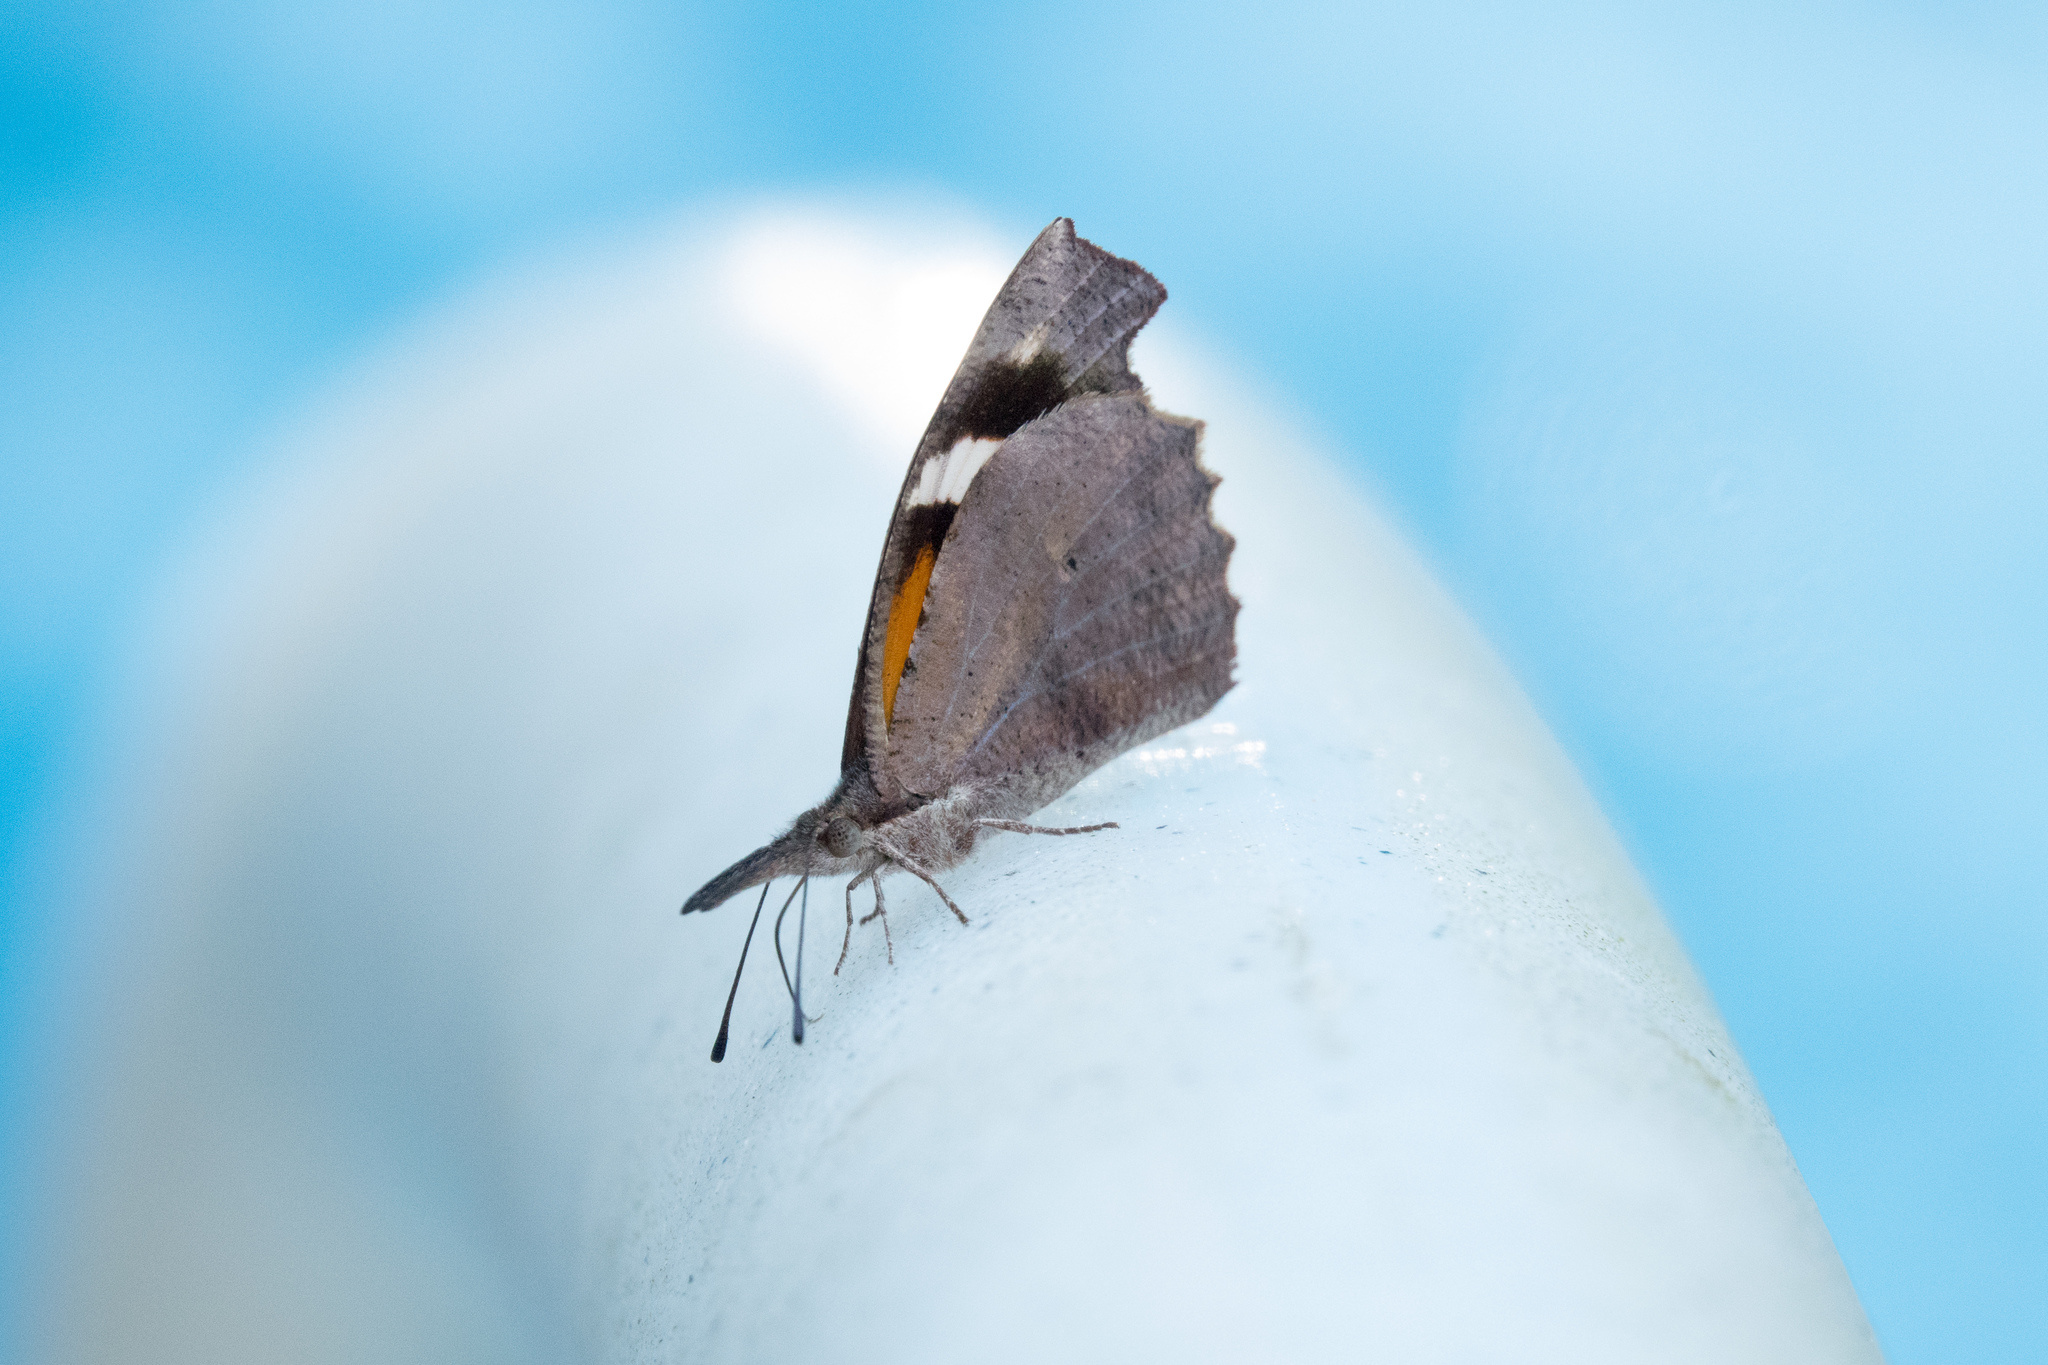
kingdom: Animalia
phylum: Arthropoda
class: Insecta
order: Lepidoptera
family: Nymphalidae
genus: Libytheana
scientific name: Libytheana carinenta
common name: American snout
